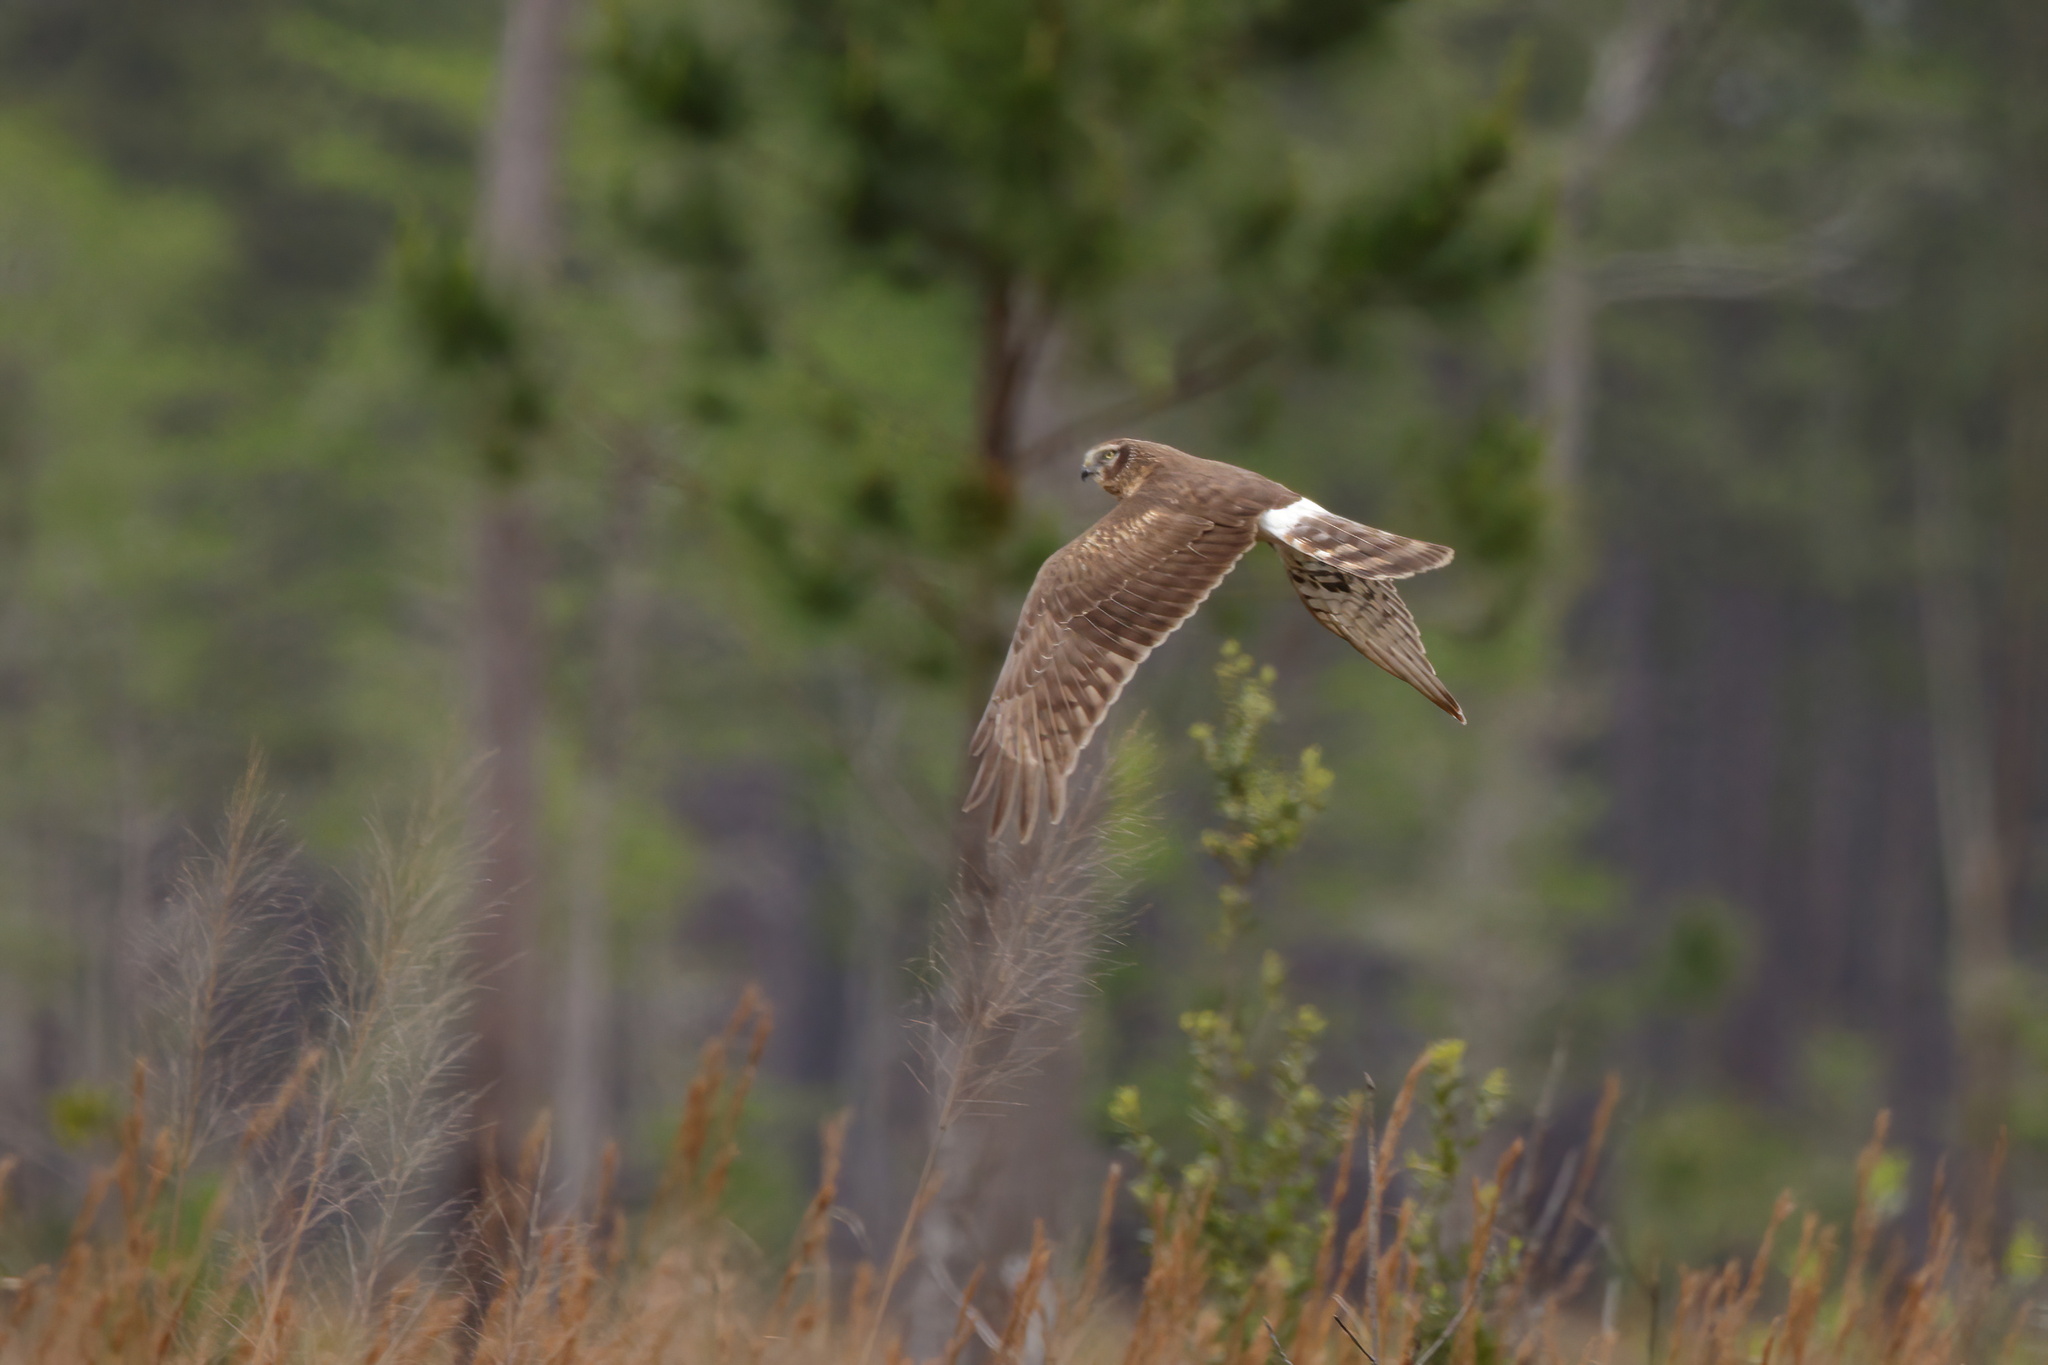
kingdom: Animalia
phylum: Chordata
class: Aves
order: Accipitriformes
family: Accipitridae
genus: Circus
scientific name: Circus cyaneus
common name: Hen harrier
